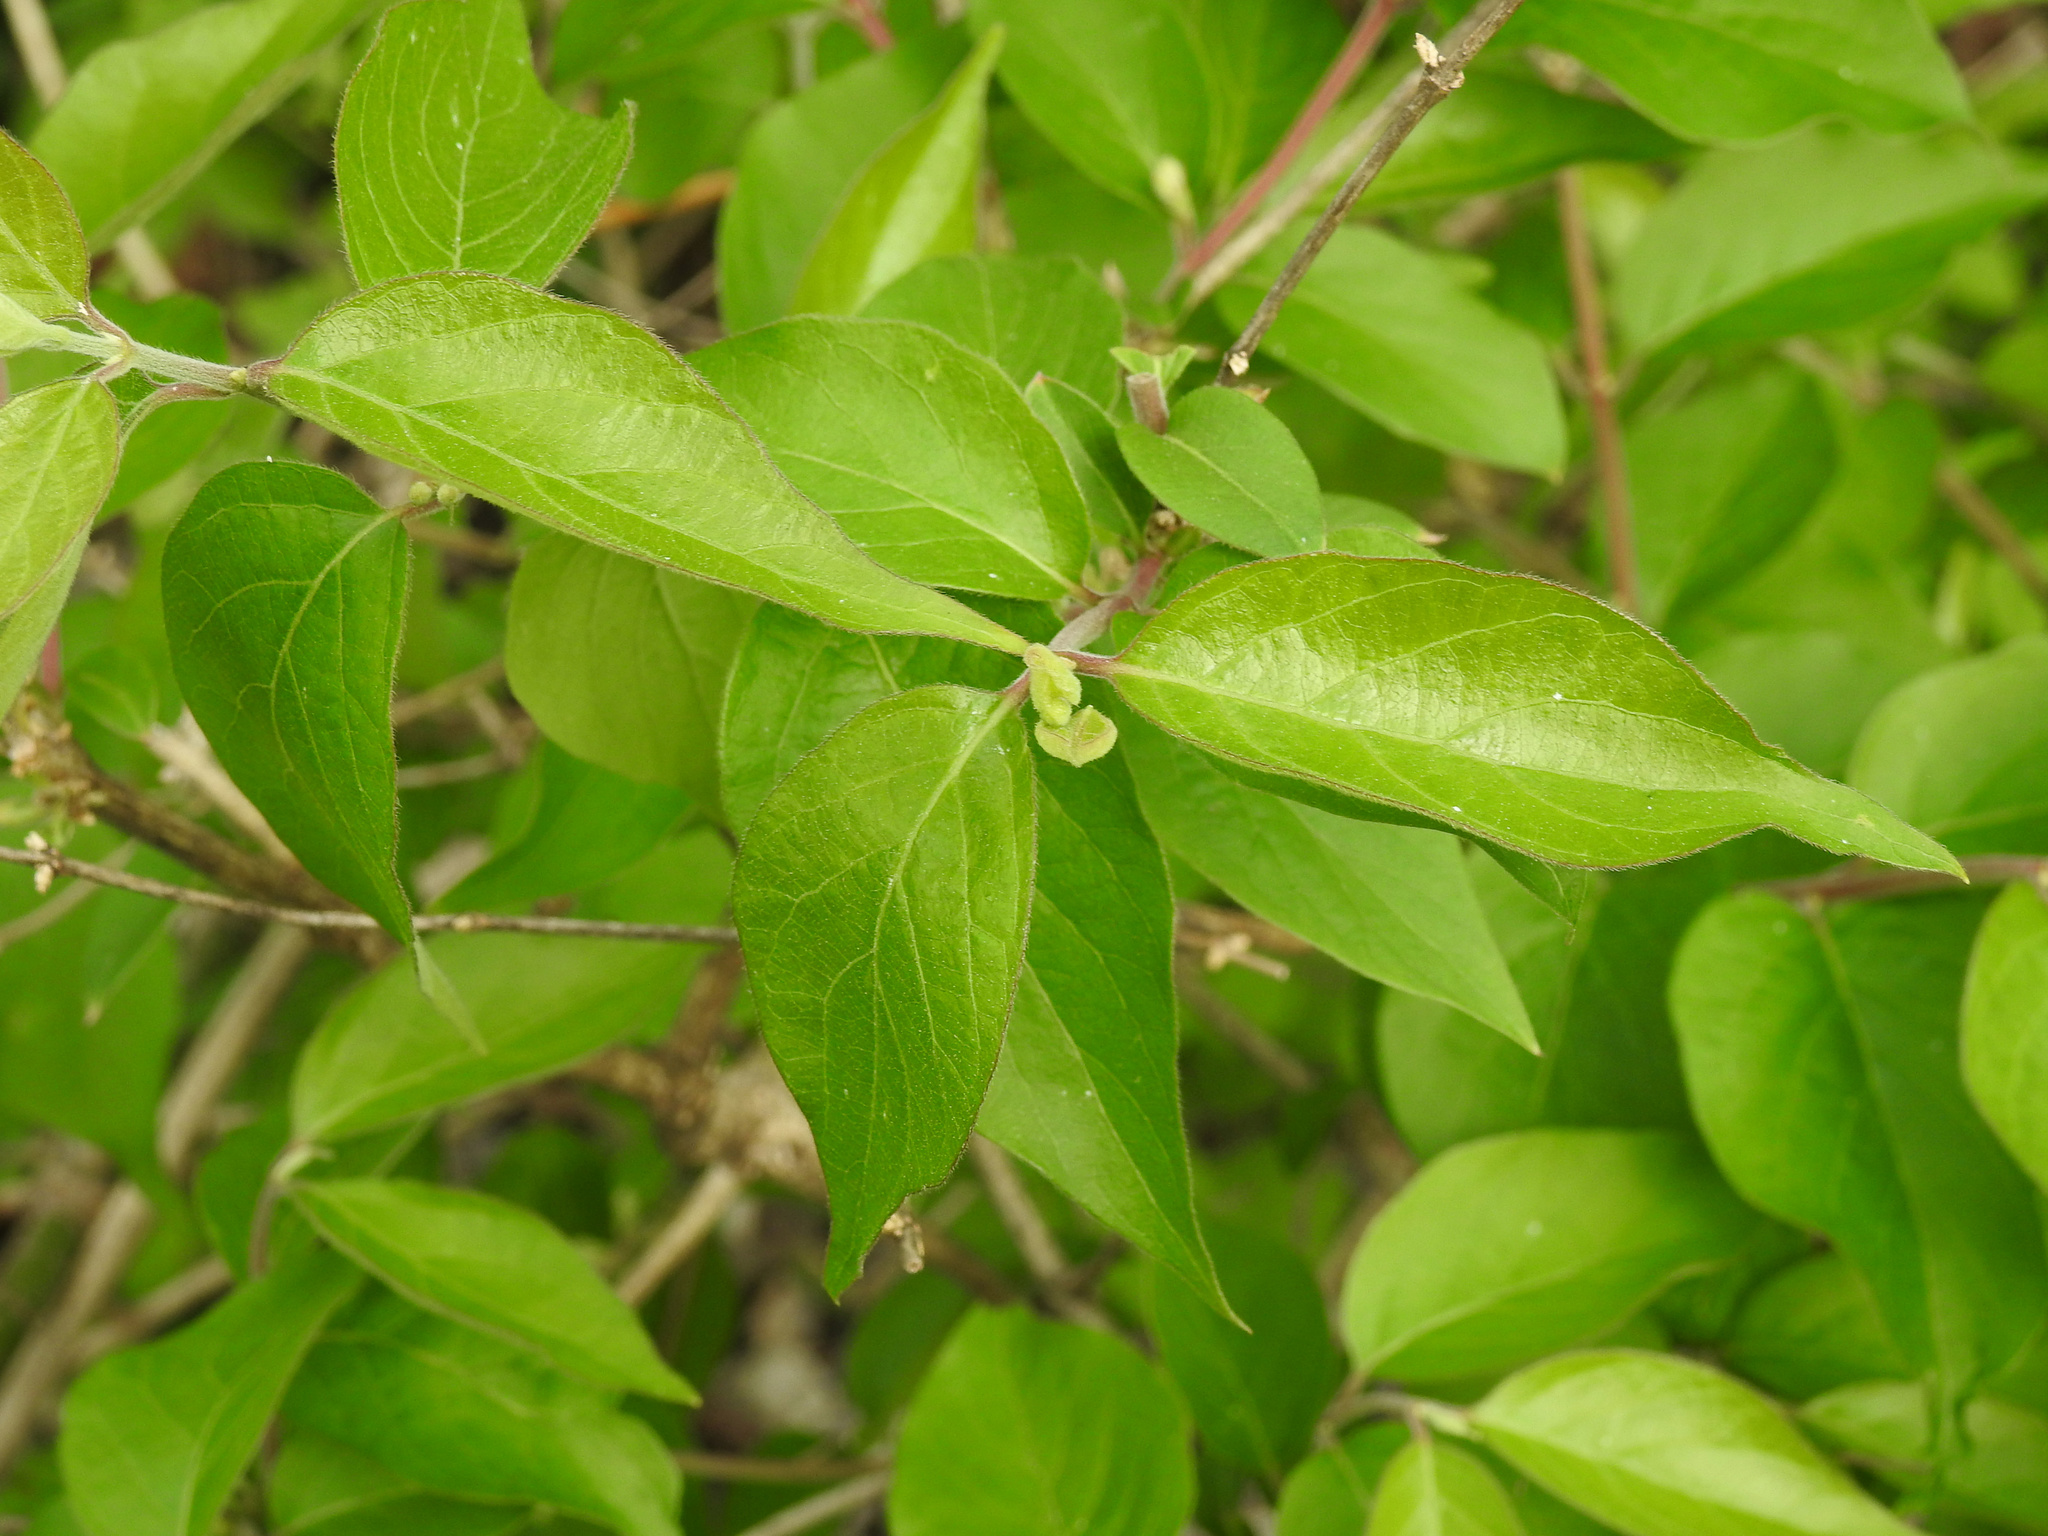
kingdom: Plantae
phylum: Tracheophyta
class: Magnoliopsida
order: Dipsacales
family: Caprifoliaceae
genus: Lonicera
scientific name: Lonicera maackii
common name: Amur honeysuckle
